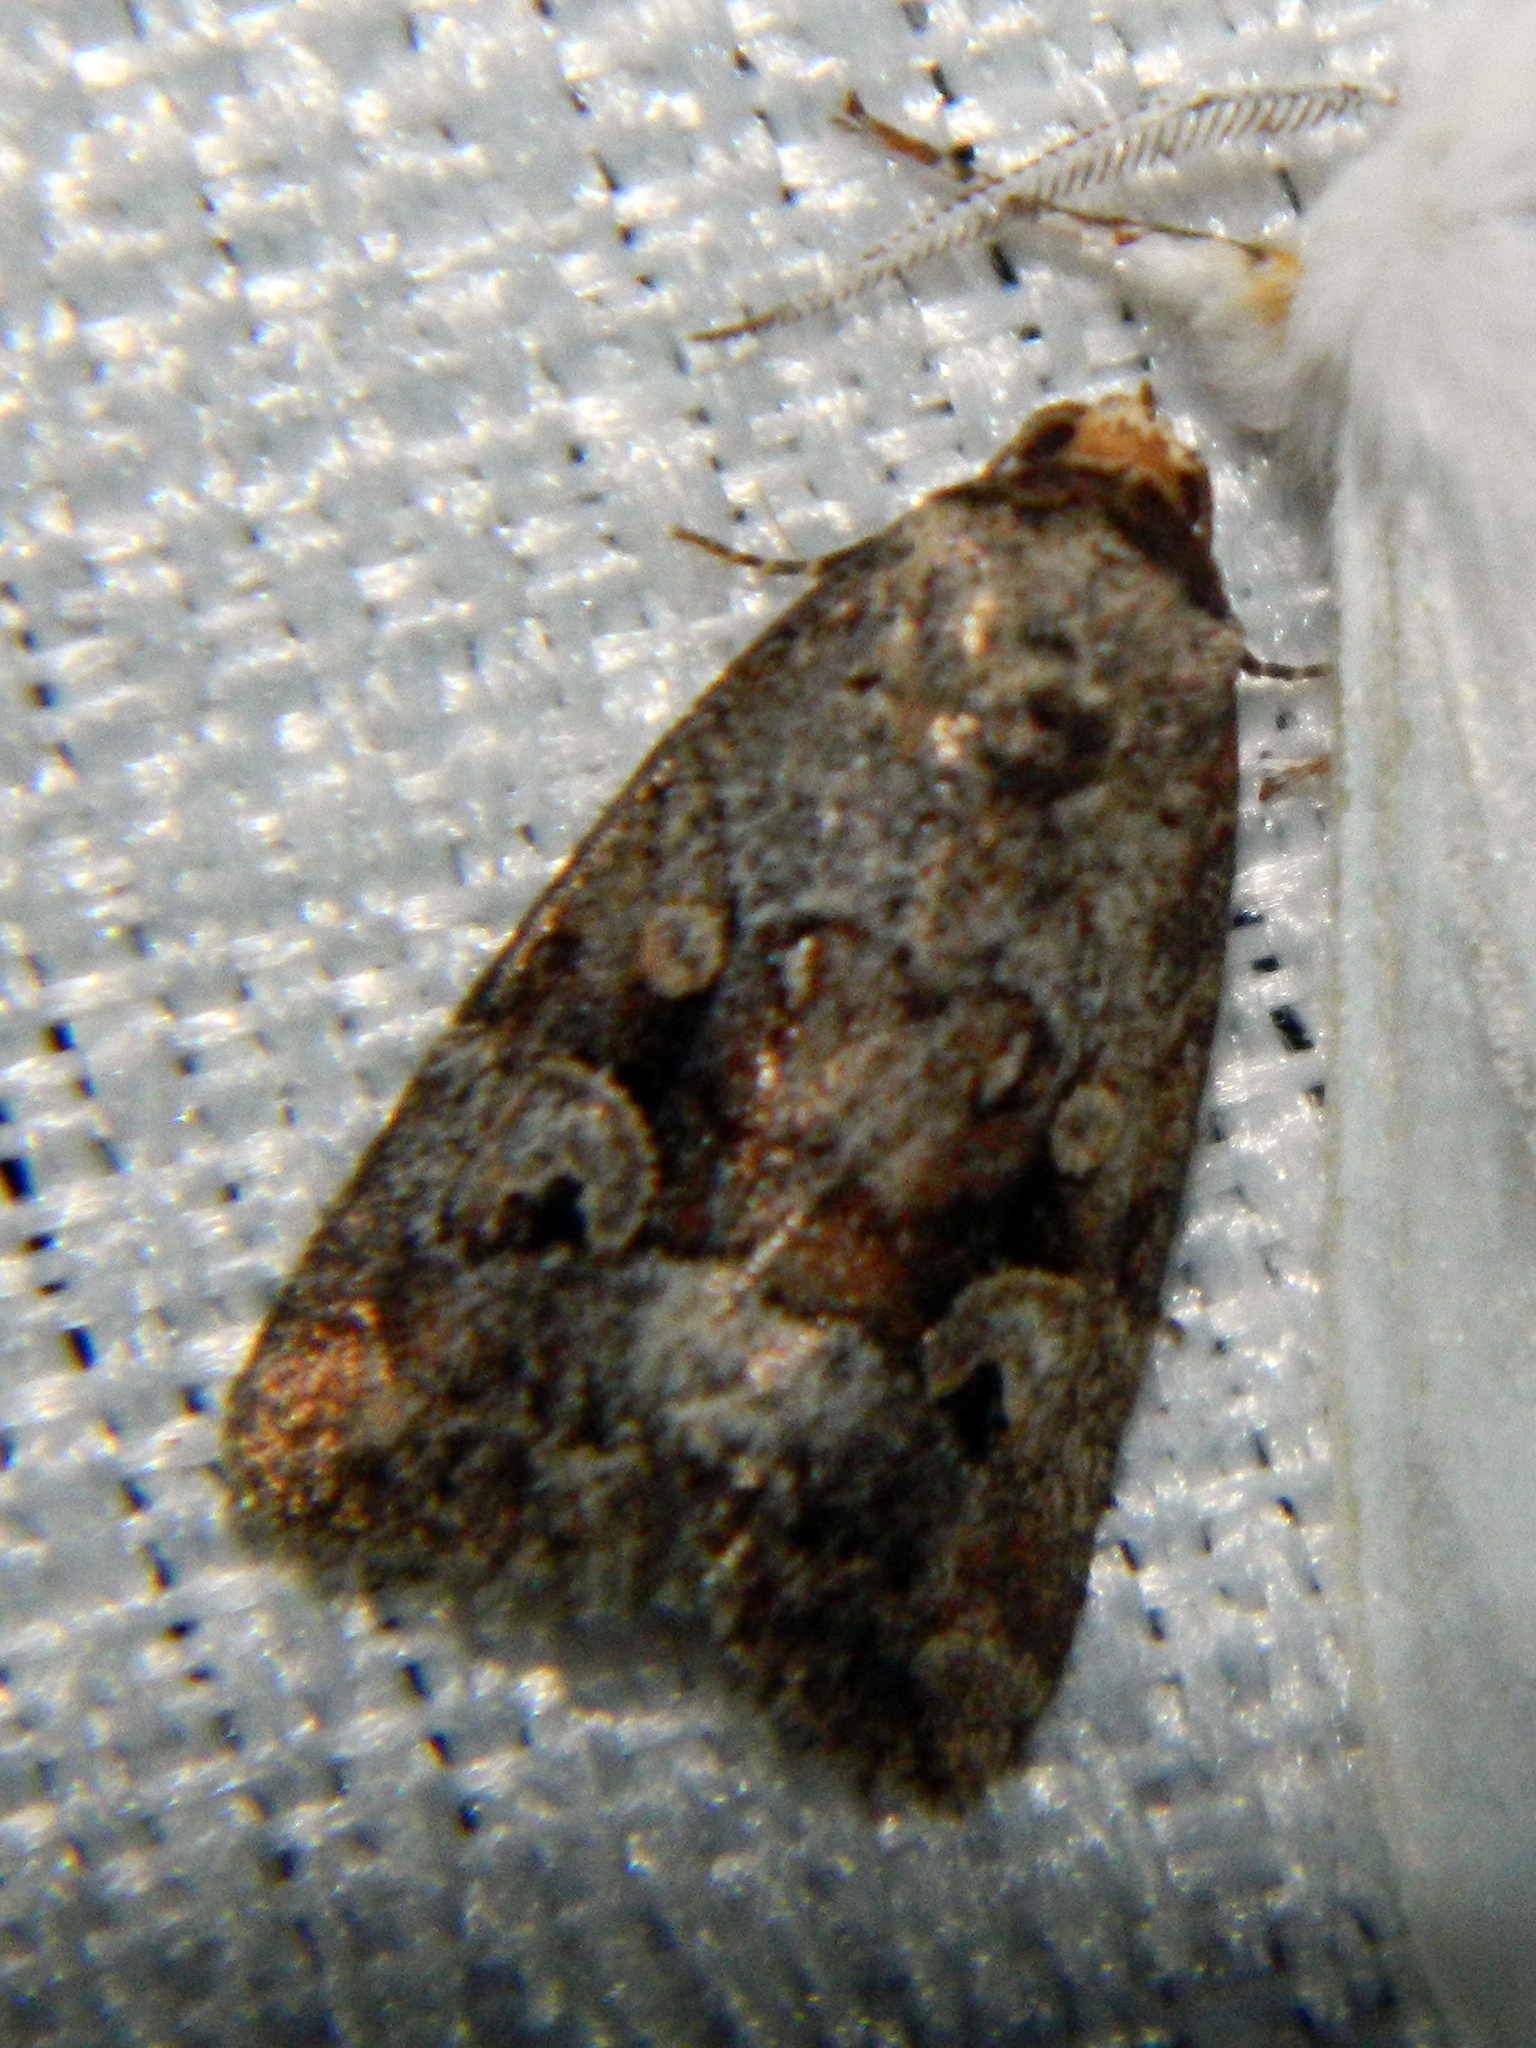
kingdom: Animalia
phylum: Arthropoda
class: Insecta
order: Lepidoptera
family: Noctuidae
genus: Elaphria
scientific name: Elaphria alapallida
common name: Pale-winged midget
